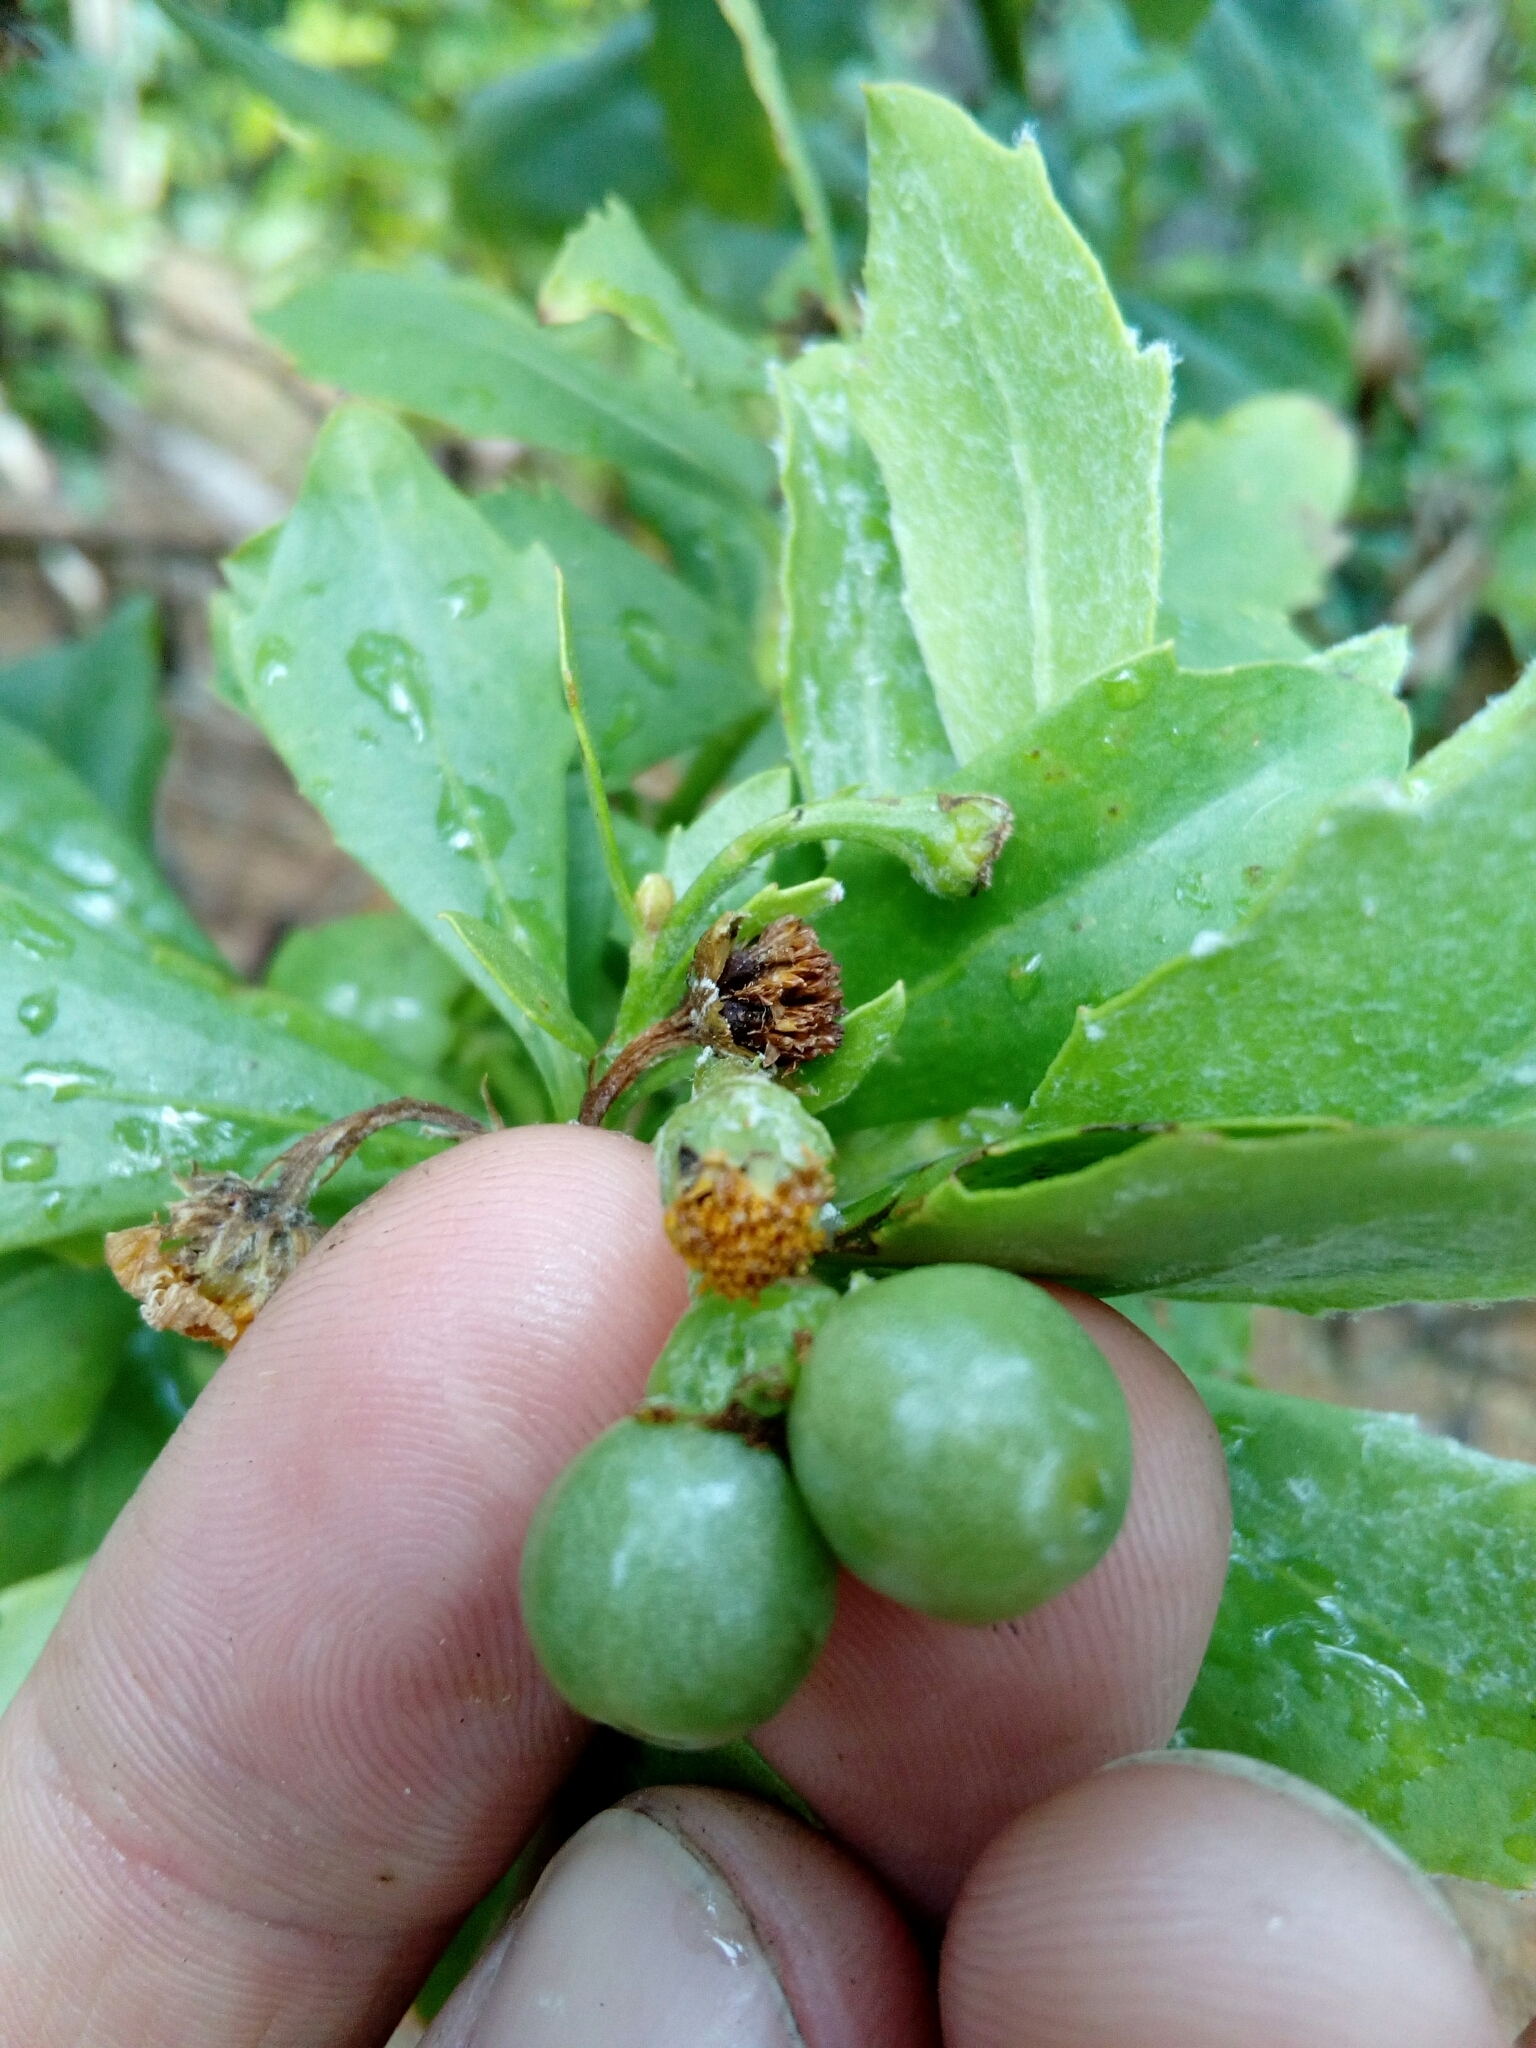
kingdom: Plantae
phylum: Tracheophyta
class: Magnoliopsida
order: Asterales
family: Asteraceae
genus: Osteospermum
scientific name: Osteospermum moniliferum
